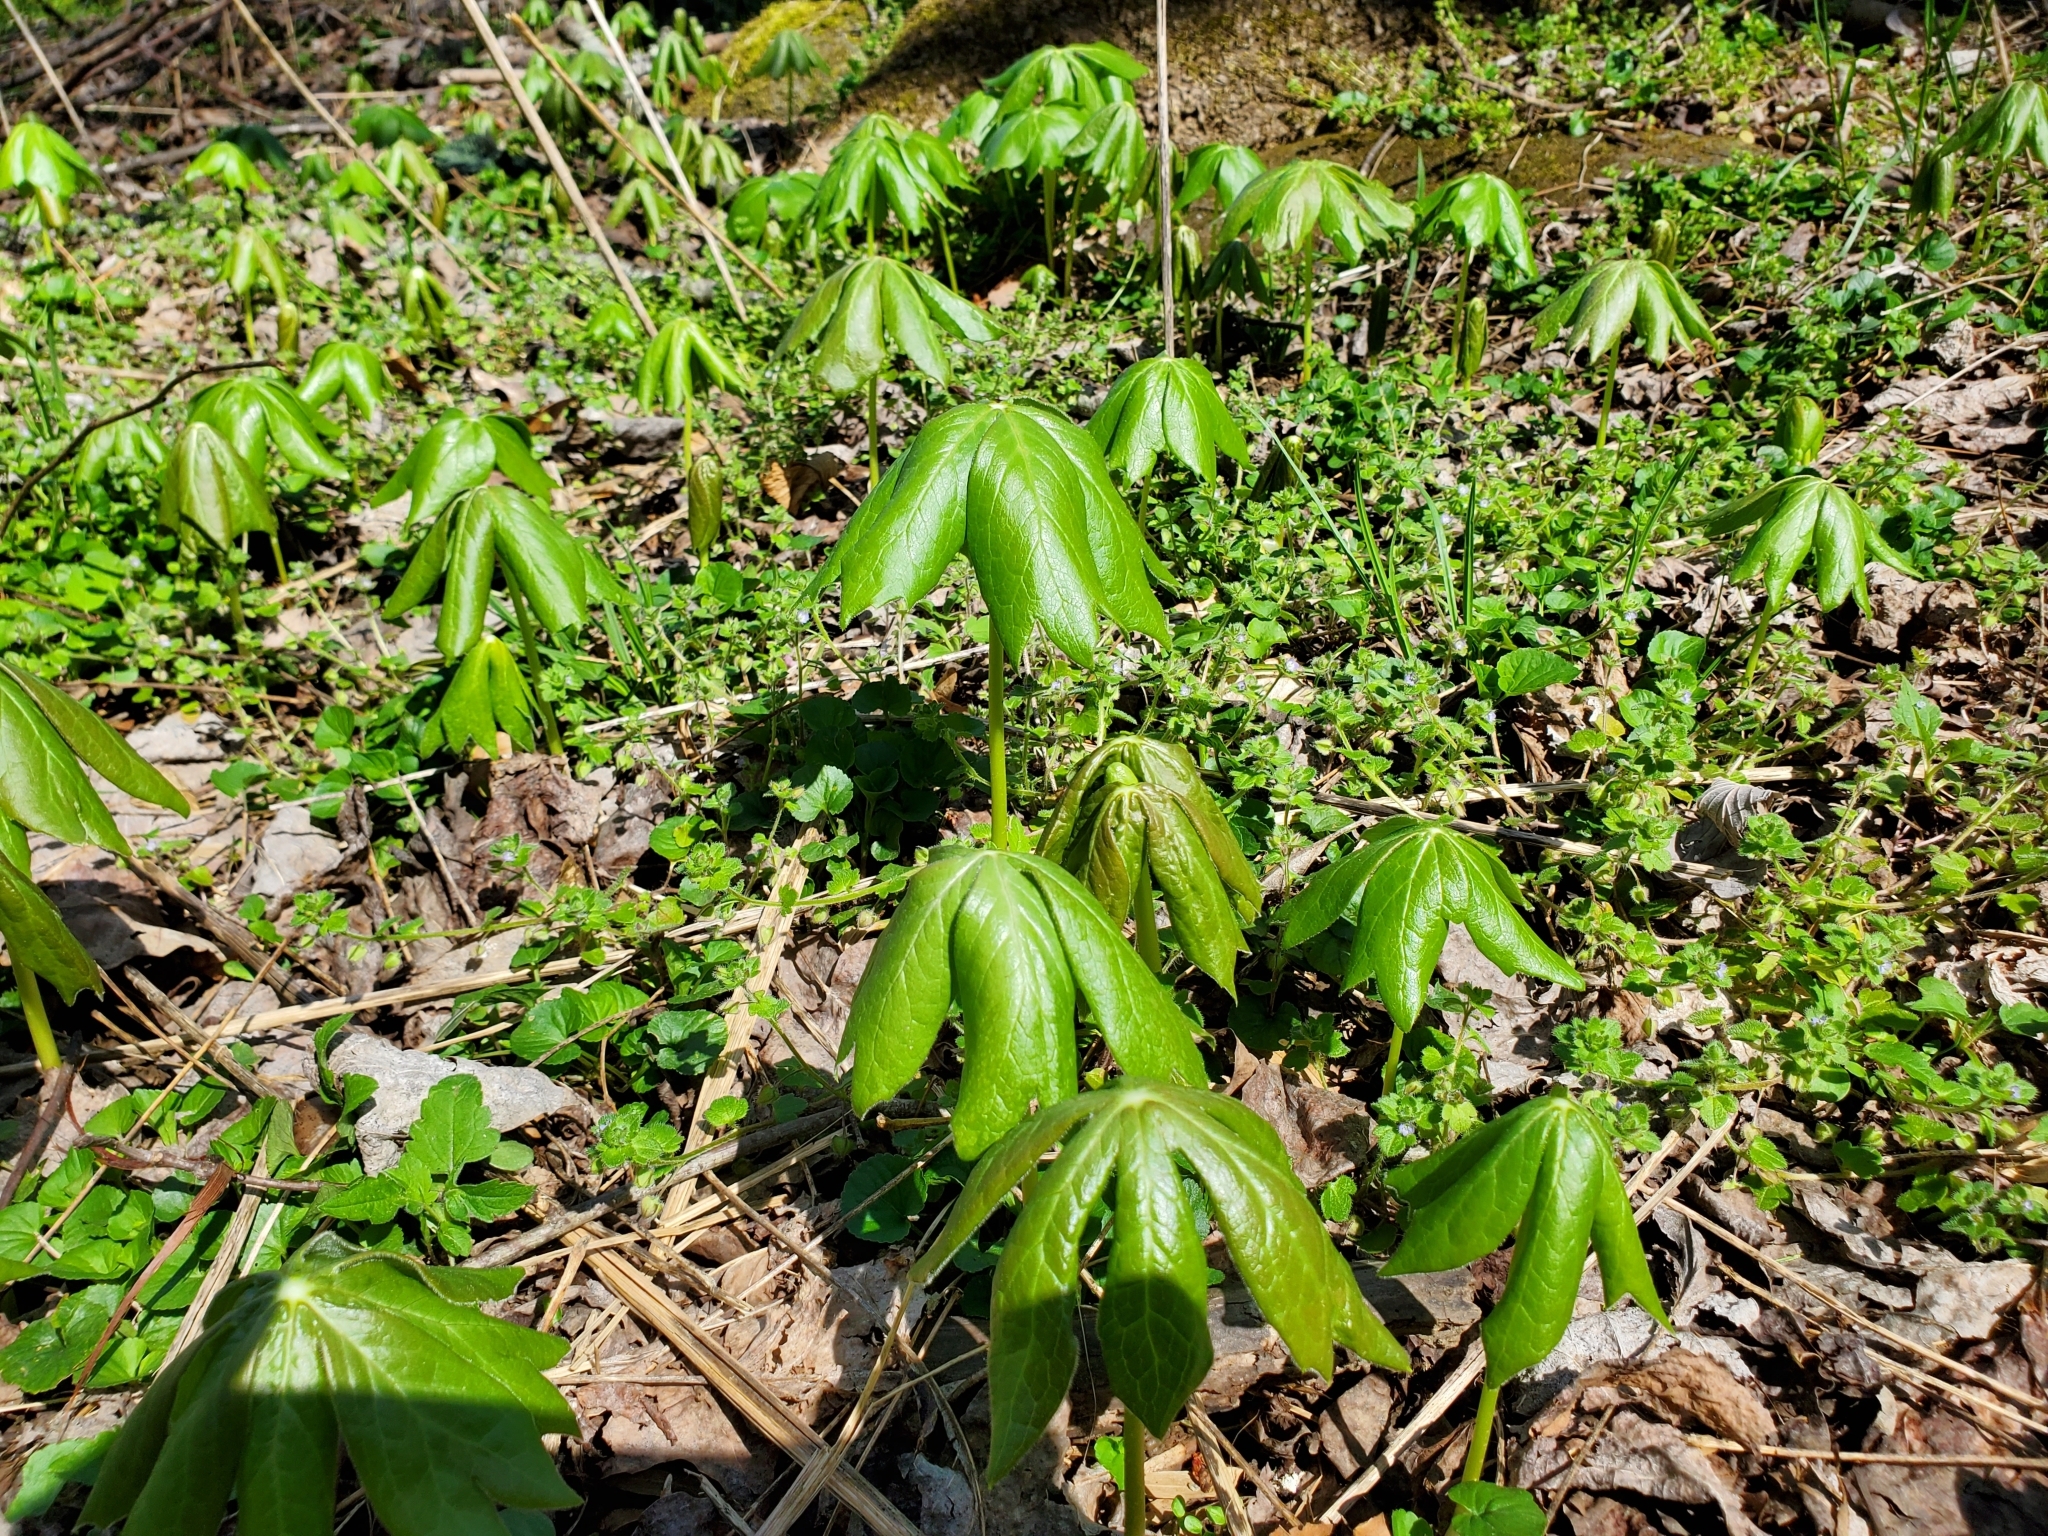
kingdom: Plantae
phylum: Tracheophyta
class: Magnoliopsida
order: Ranunculales
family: Berberidaceae
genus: Podophyllum
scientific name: Podophyllum peltatum
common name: Wild mandrake
